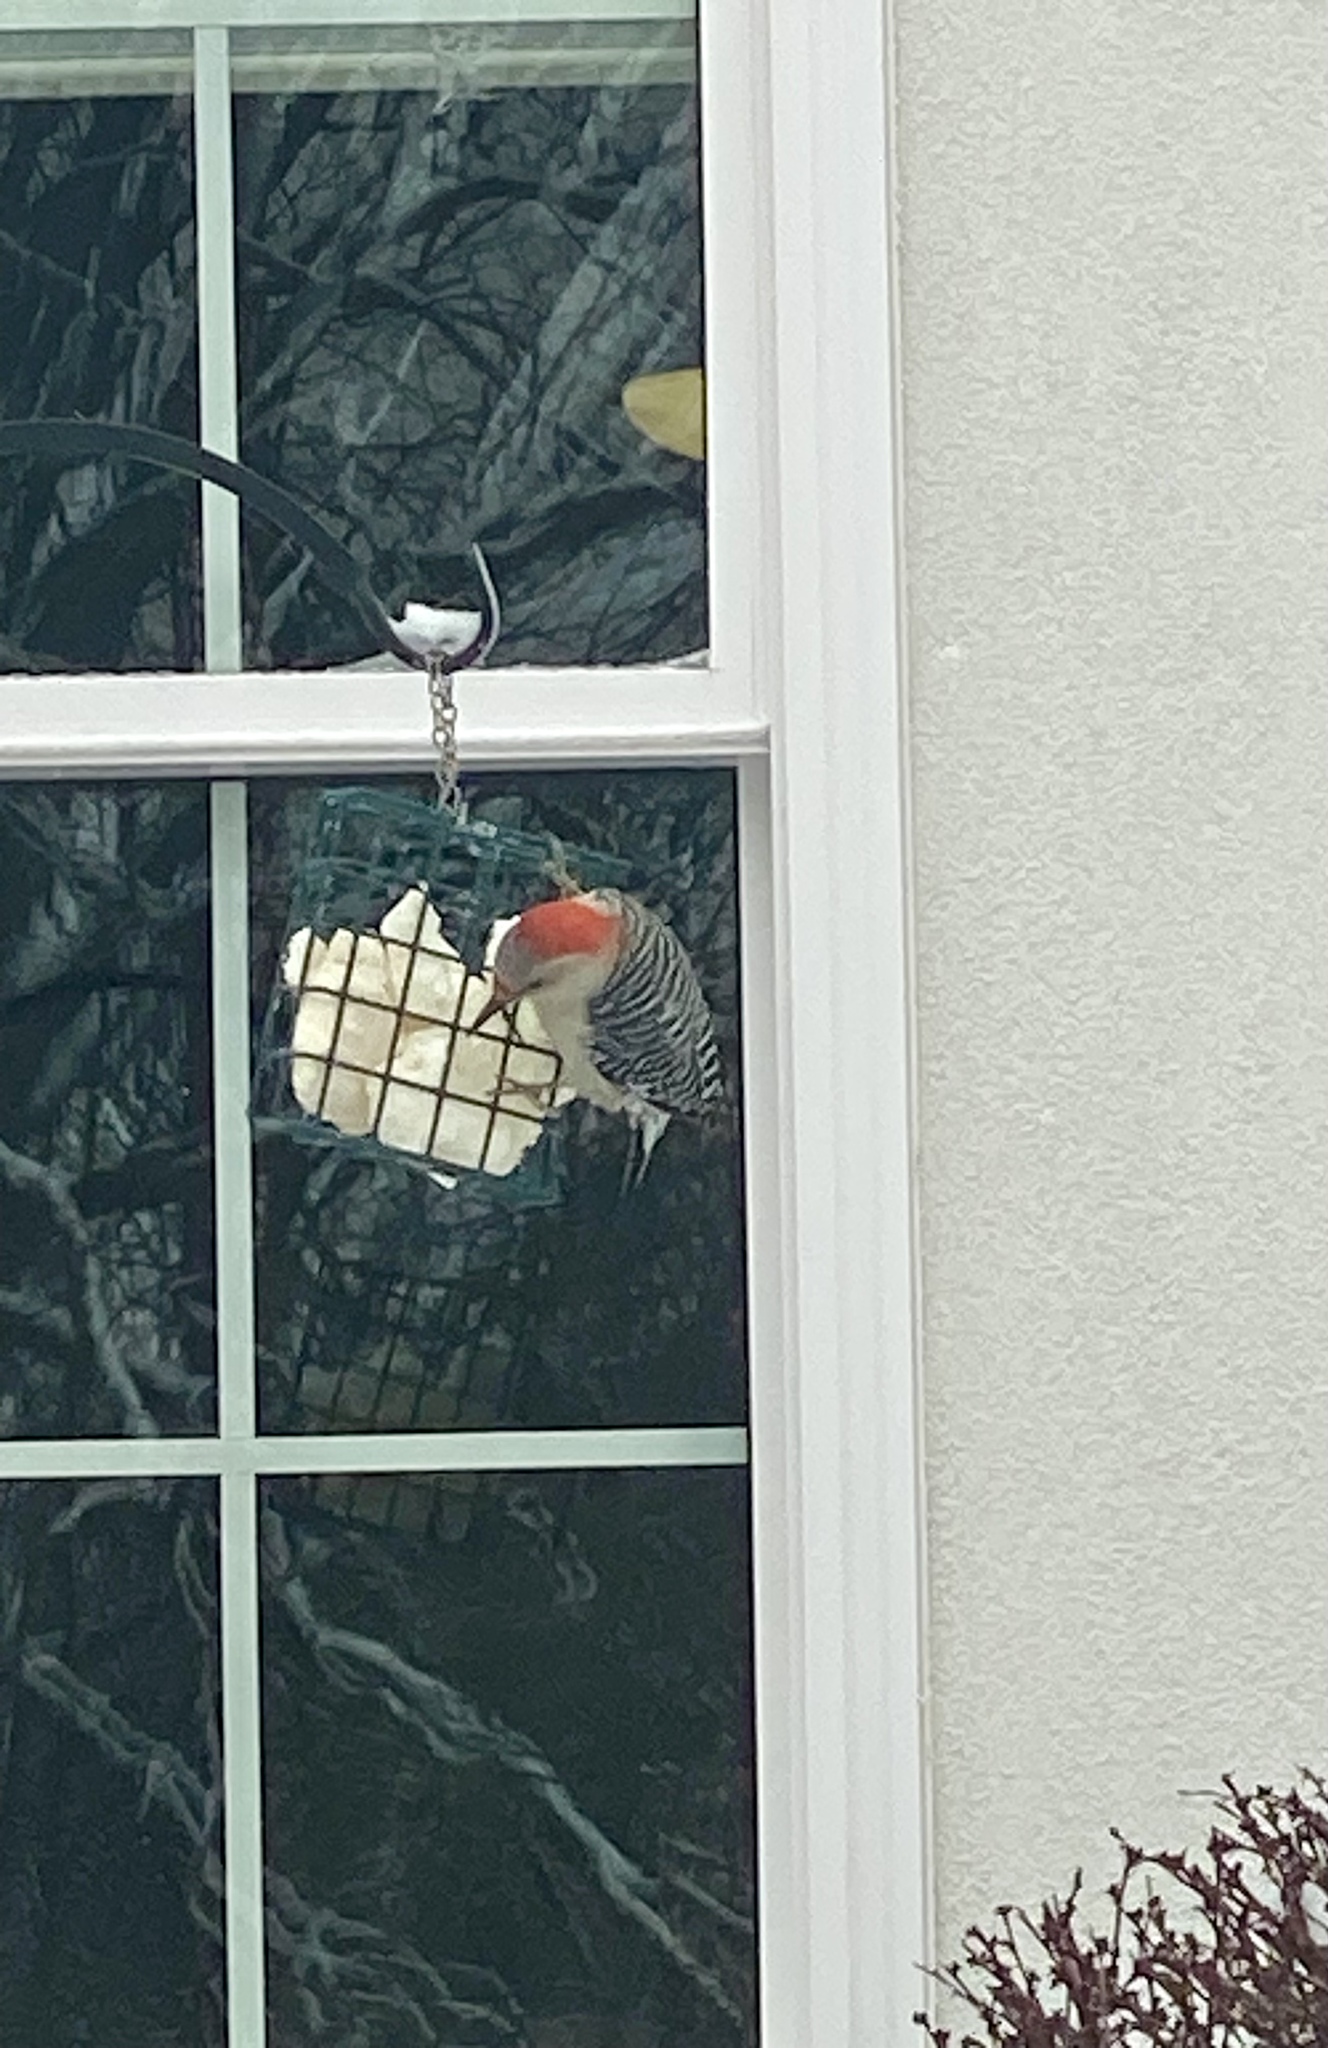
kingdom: Animalia
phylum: Chordata
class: Aves
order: Piciformes
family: Picidae
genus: Melanerpes
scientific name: Melanerpes carolinus
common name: Red-bellied woodpecker
